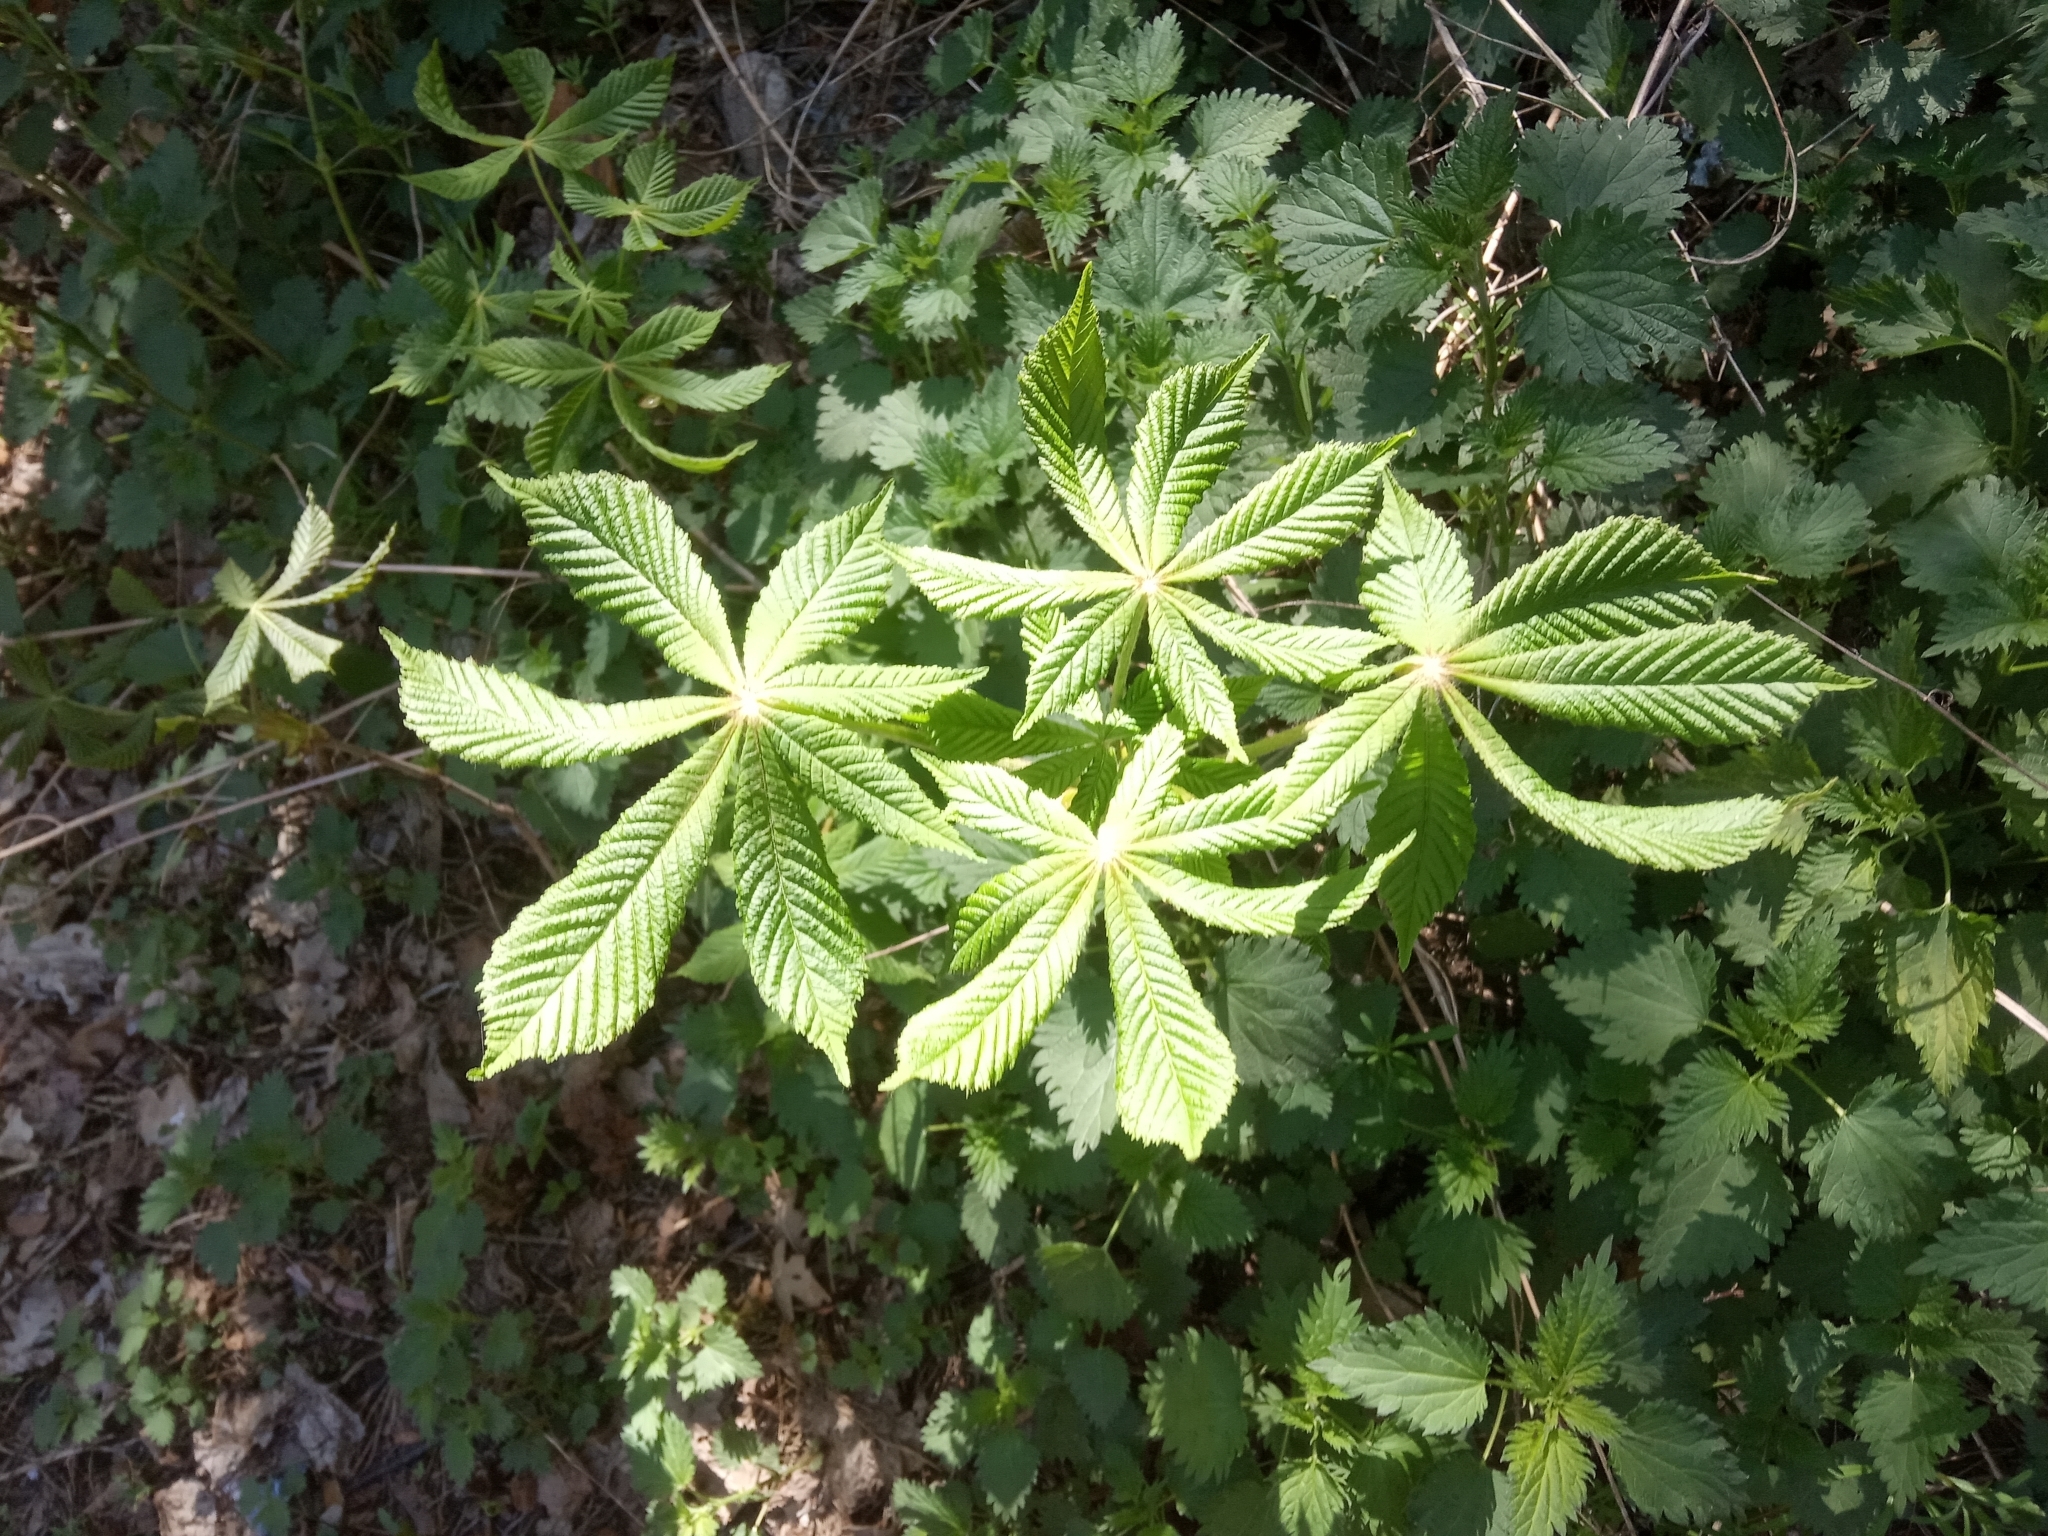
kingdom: Plantae
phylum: Tracheophyta
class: Magnoliopsida
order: Sapindales
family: Sapindaceae
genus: Aesculus
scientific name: Aesculus hippocastanum
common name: Horse-chestnut
